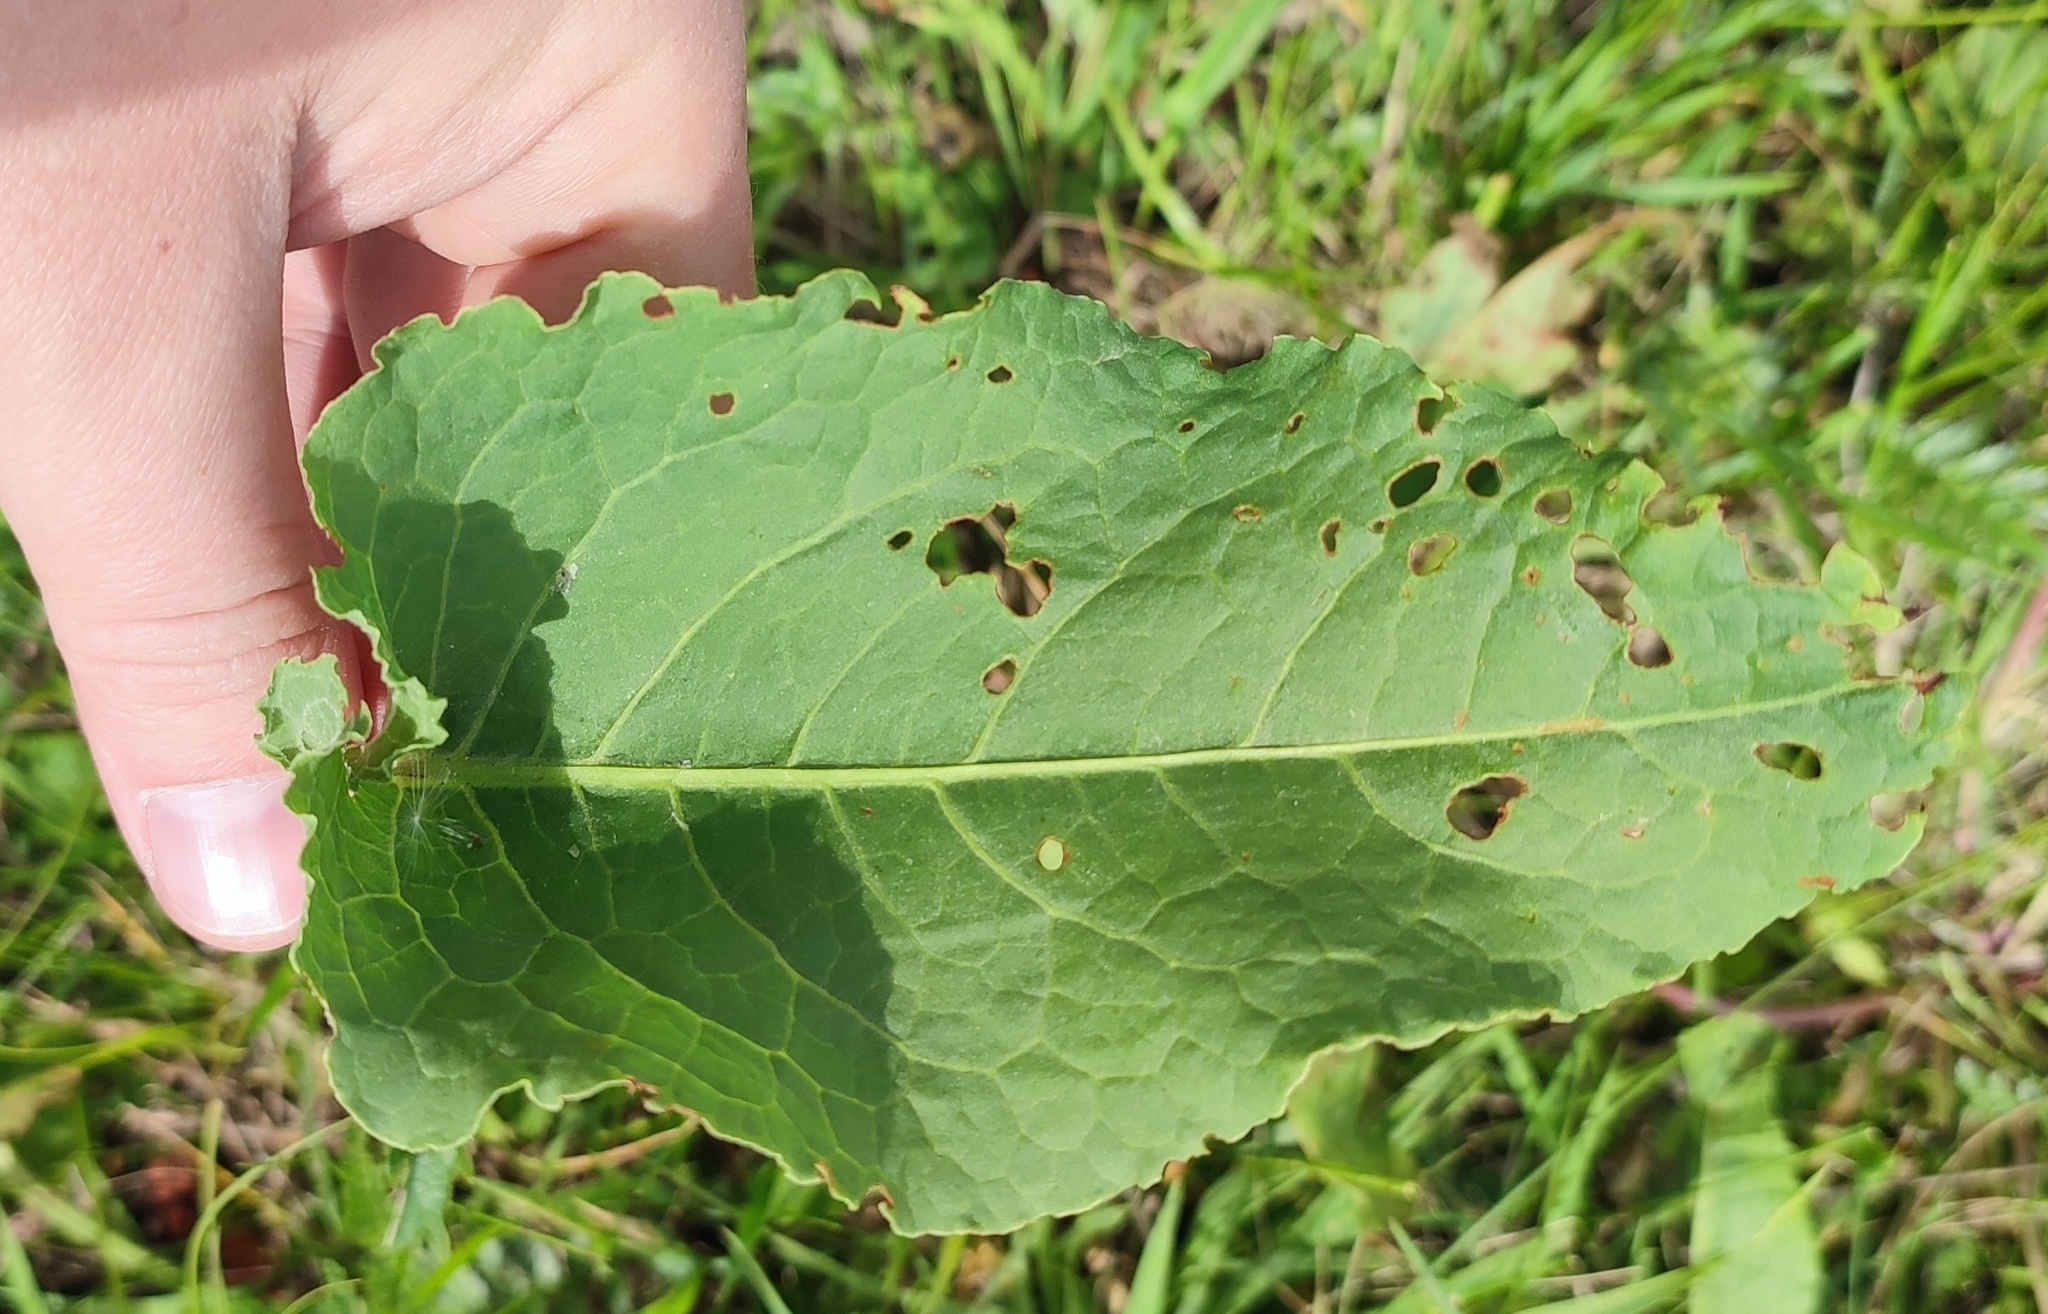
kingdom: Plantae
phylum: Tracheophyta
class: Magnoliopsida
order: Caryophyllales
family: Polygonaceae
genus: Rumex
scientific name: Rumex confertus
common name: Russian dock
